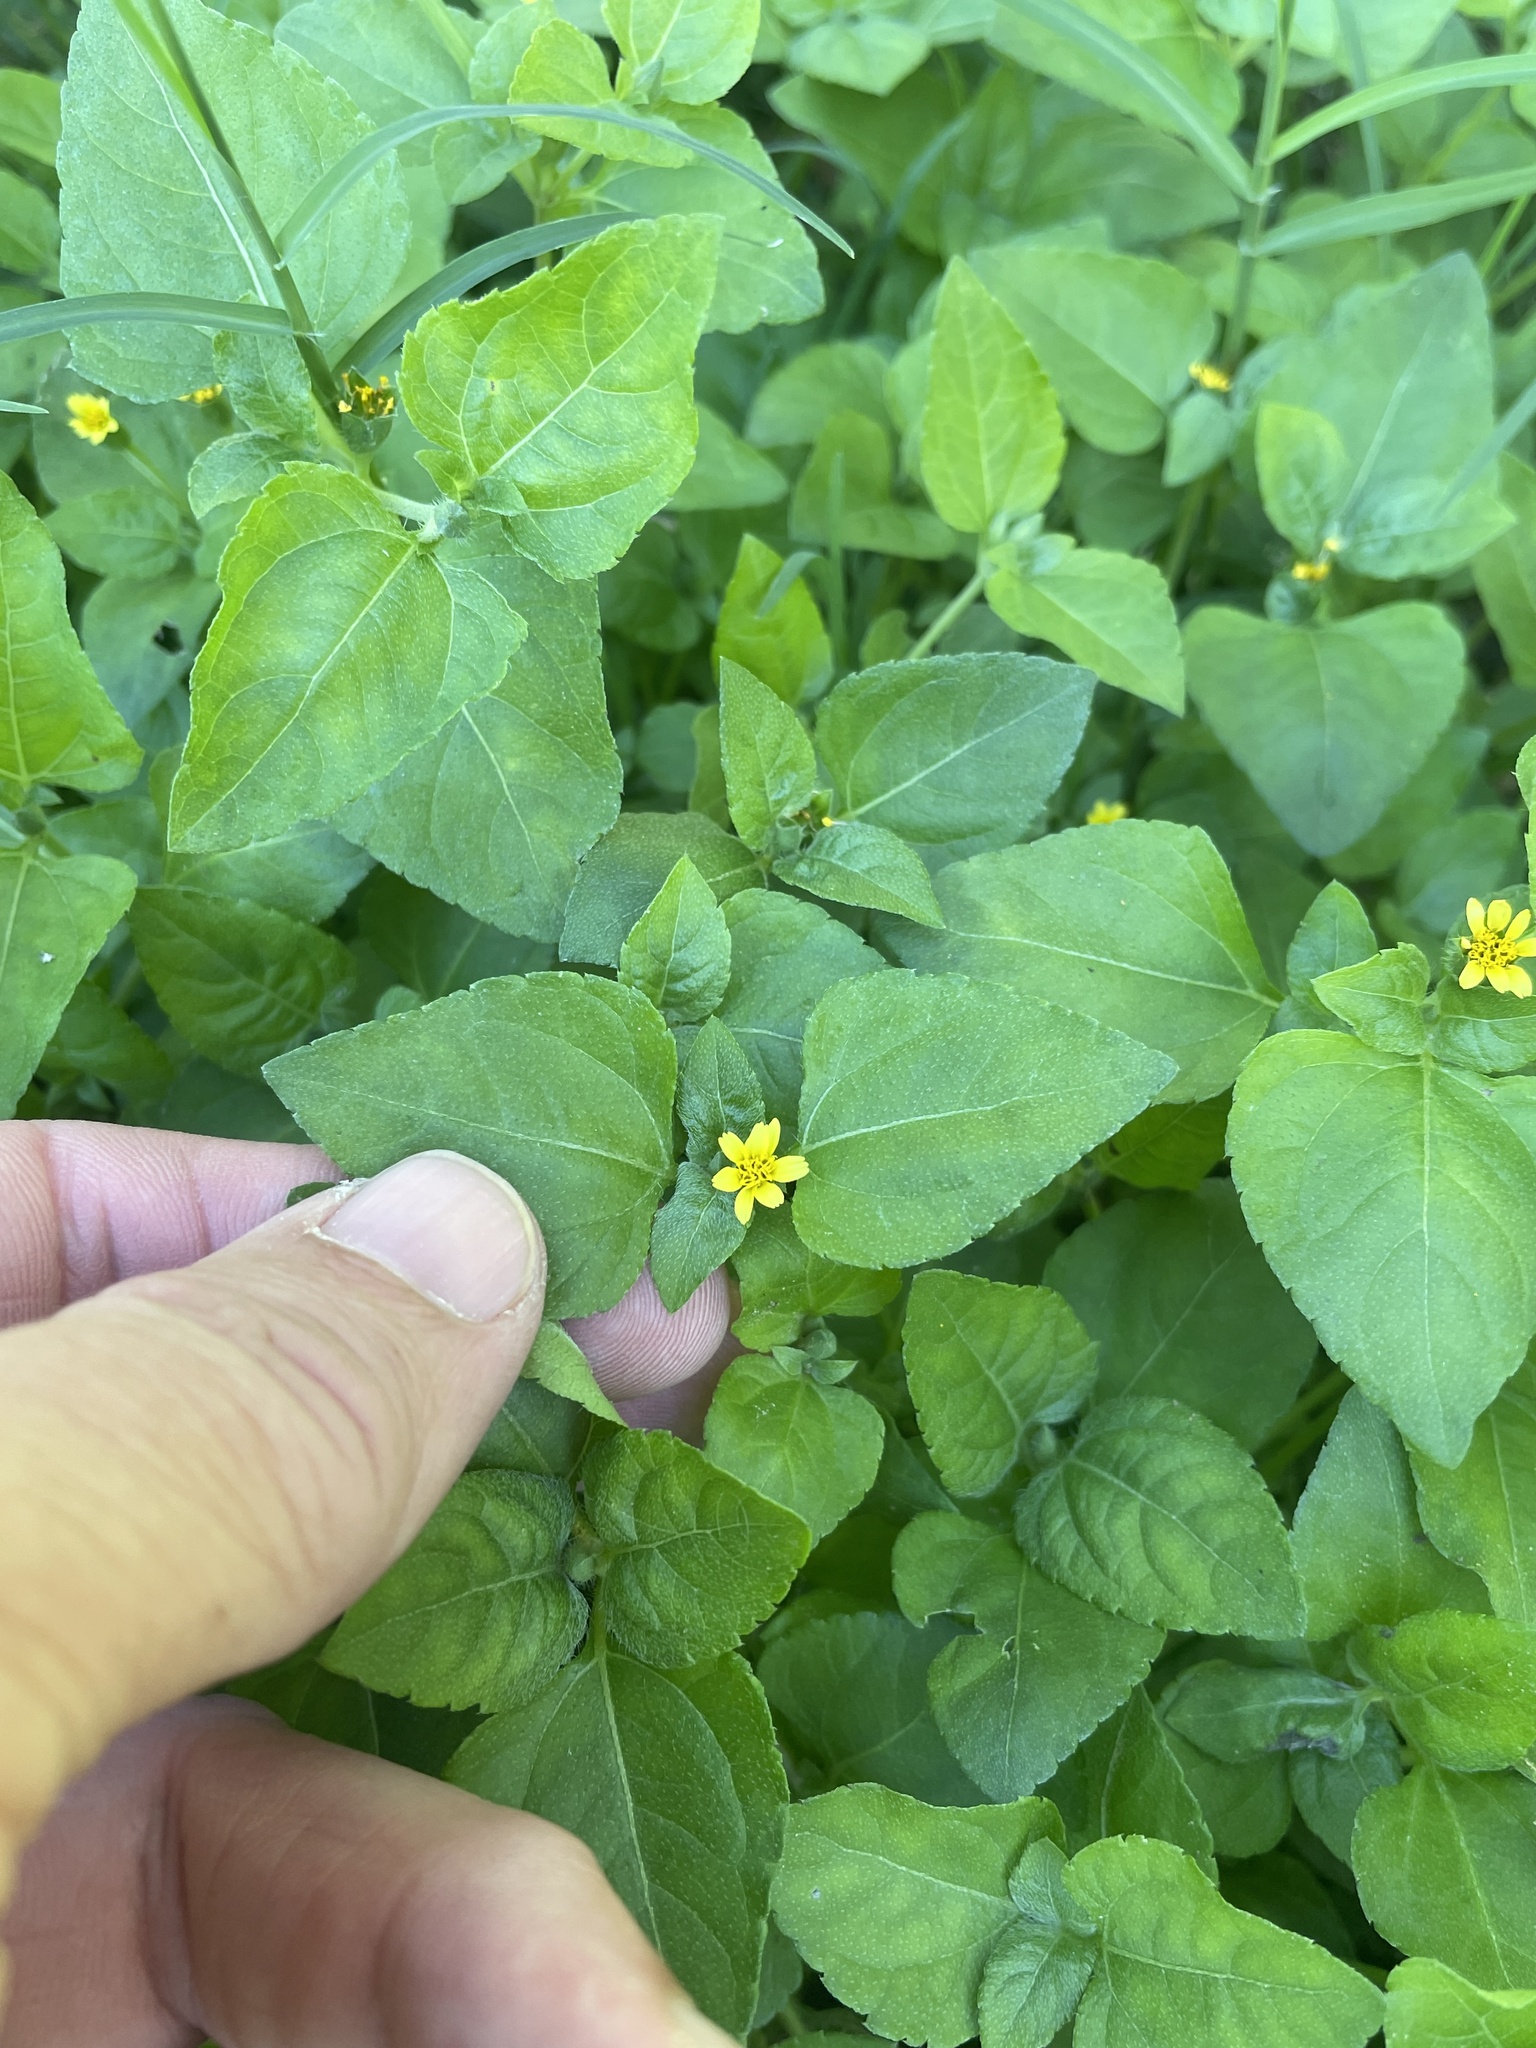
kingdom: Plantae
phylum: Tracheophyta
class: Magnoliopsida
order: Asterales
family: Asteraceae
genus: Calyptocarpus
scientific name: Calyptocarpus vialis
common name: Straggler daisy
